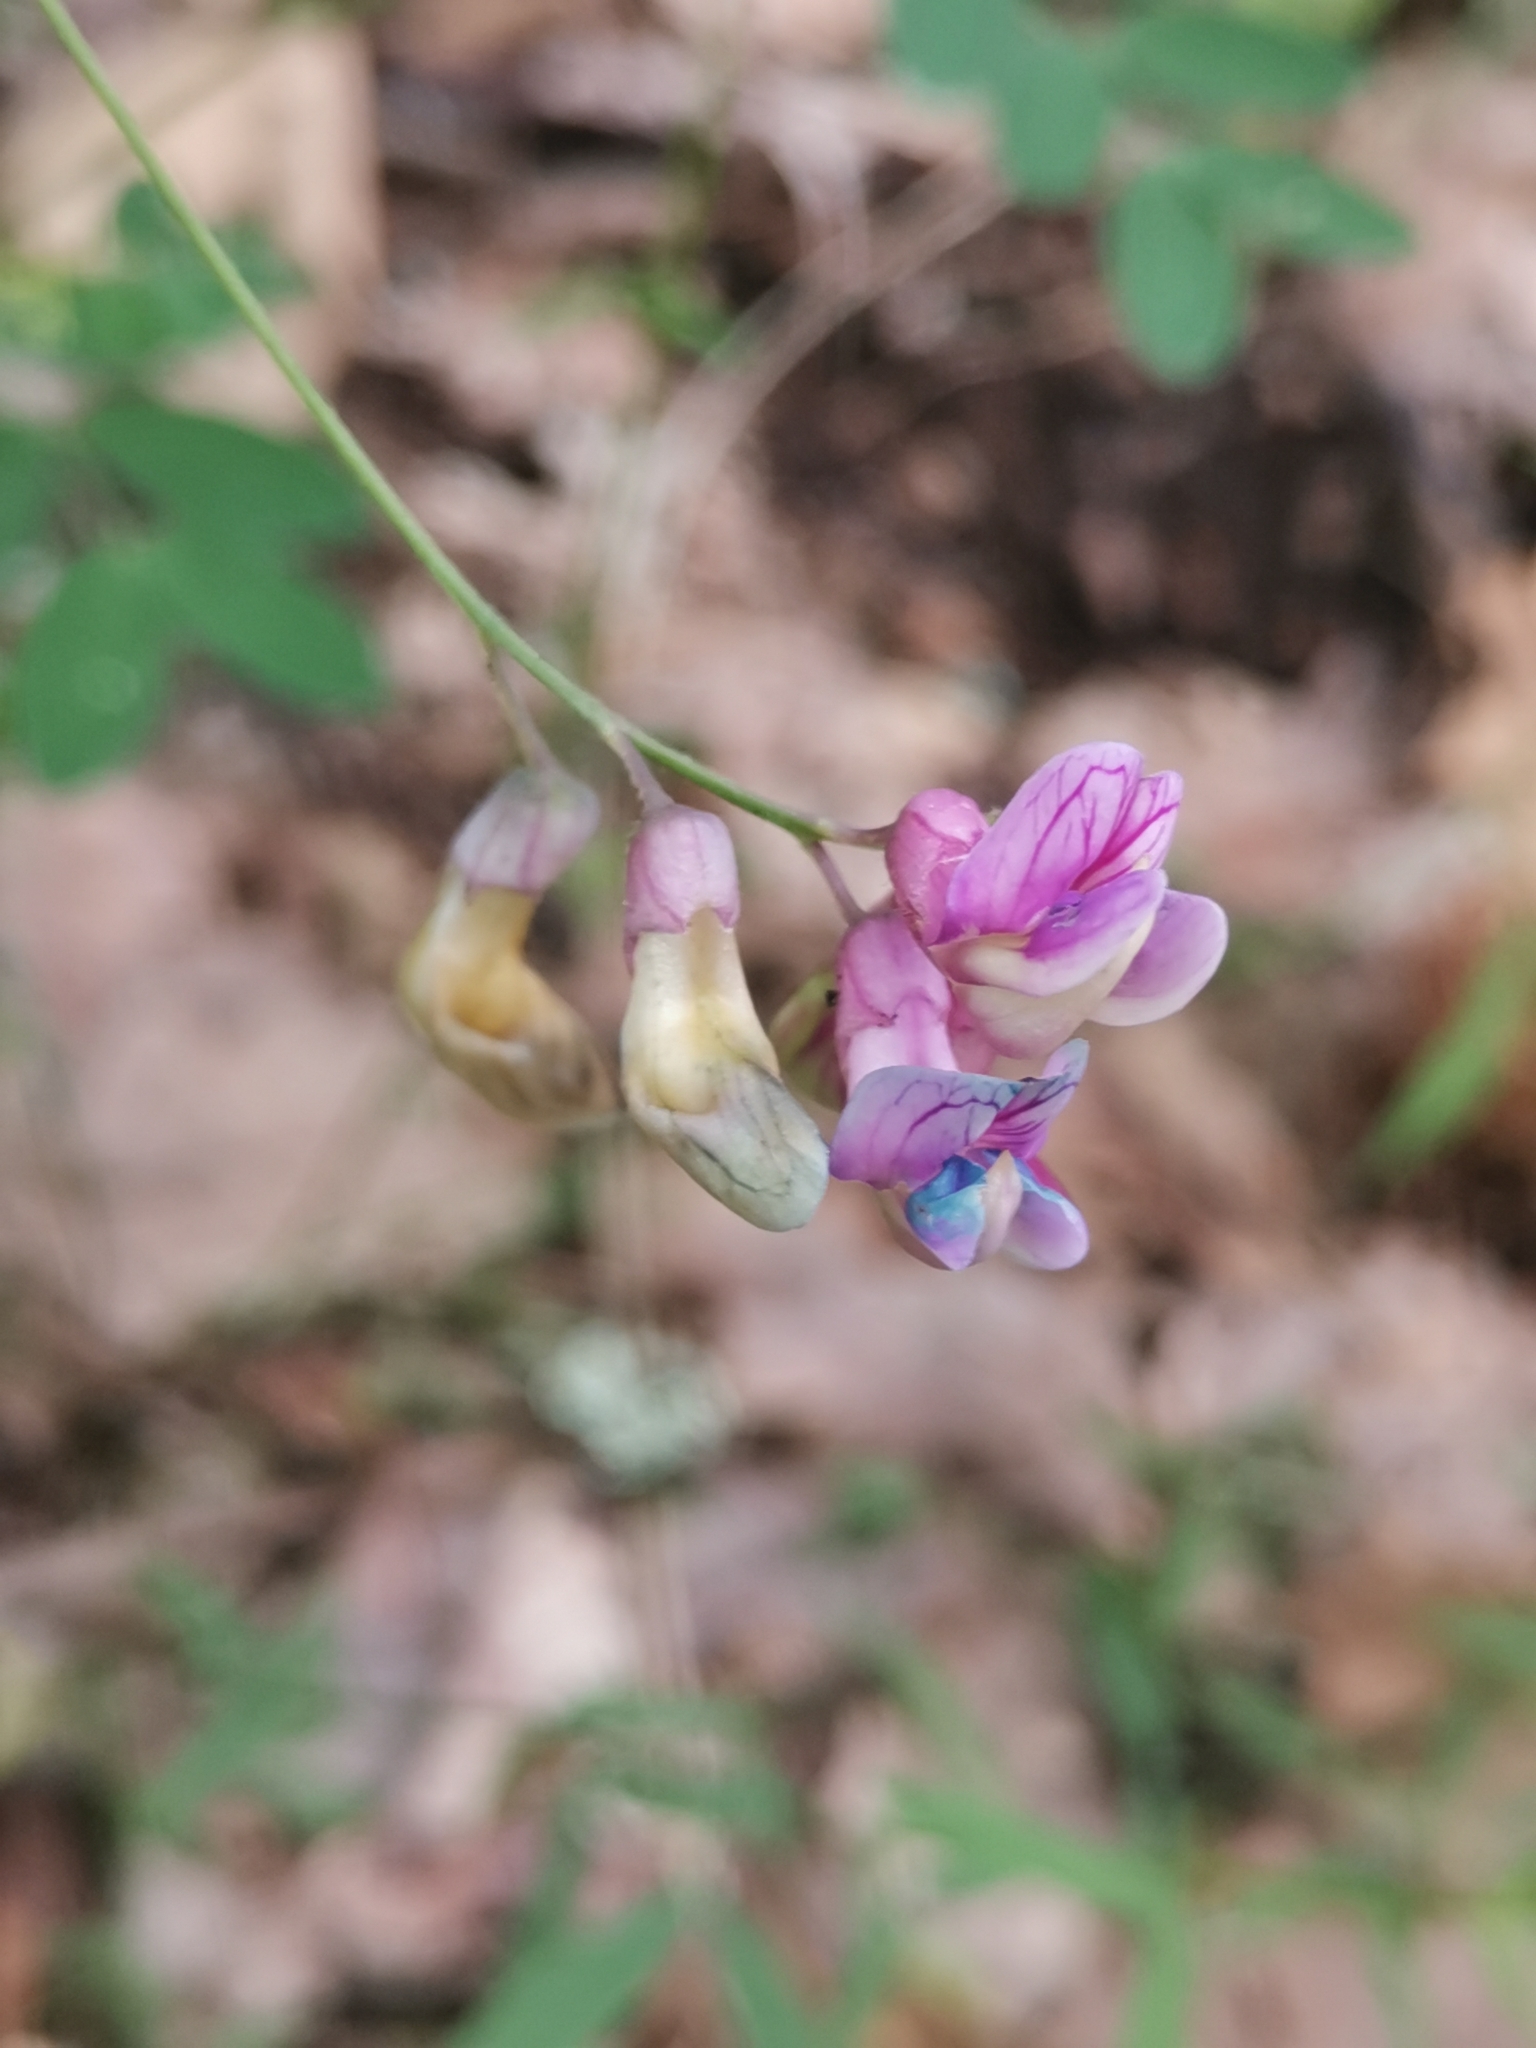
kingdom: Plantae
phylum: Tracheophyta
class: Magnoliopsida
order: Fabales
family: Fabaceae
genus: Lathyrus
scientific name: Lathyrus niger
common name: Black pea
